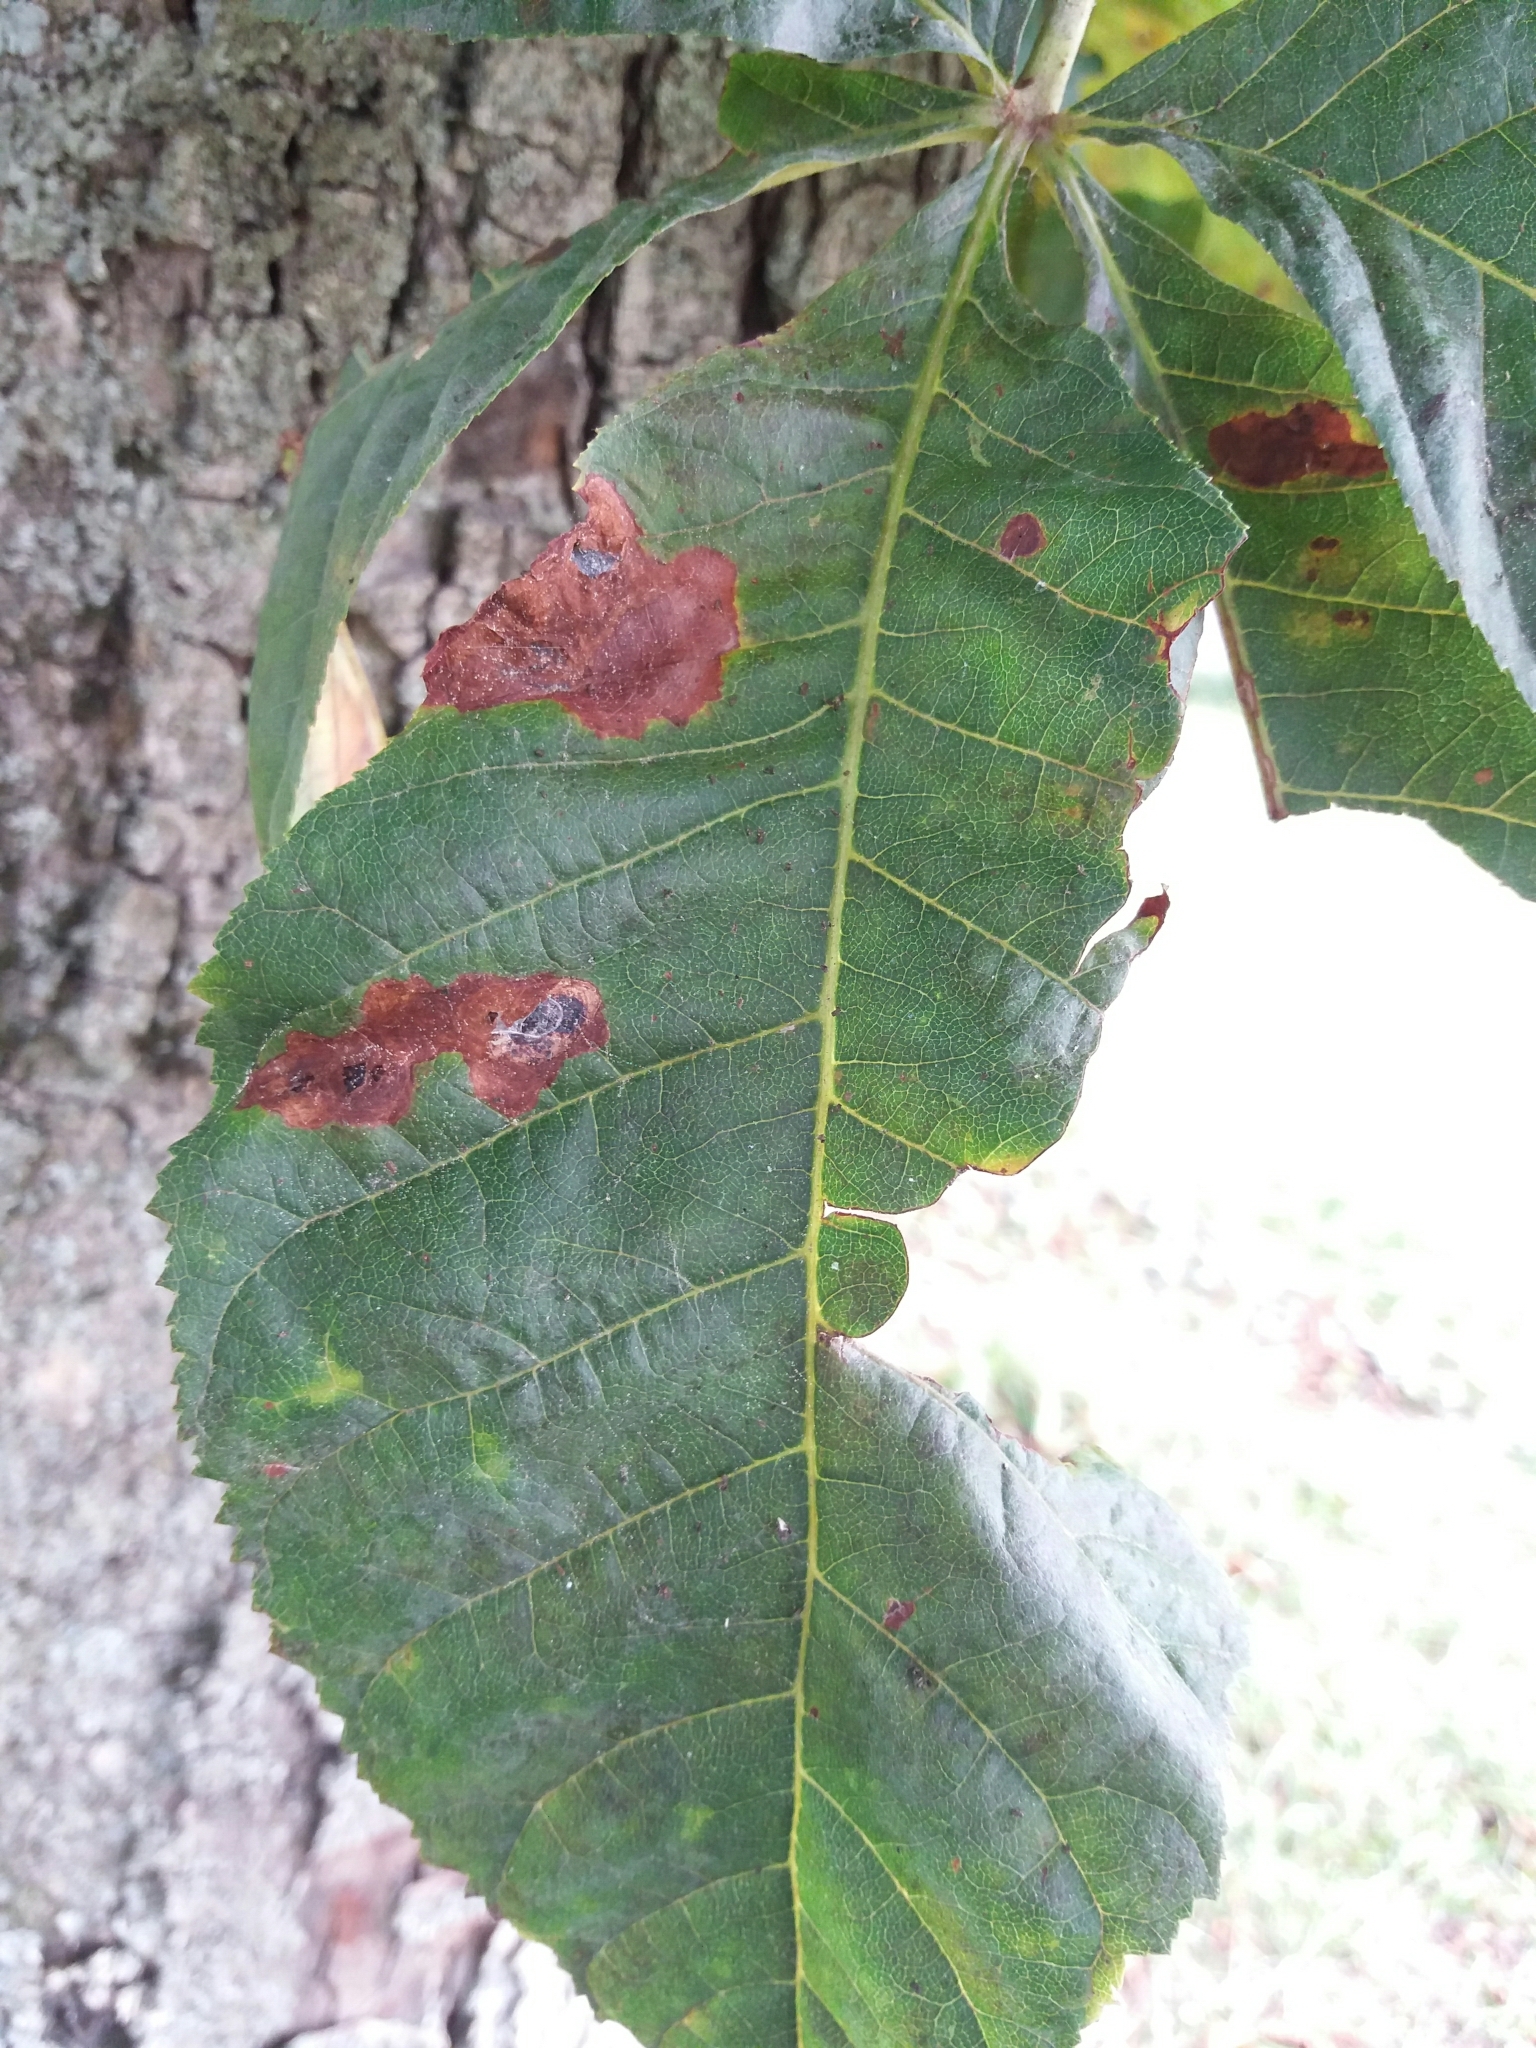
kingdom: Animalia
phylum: Arthropoda
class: Insecta
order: Lepidoptera
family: Gracillariidae
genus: Cameraria
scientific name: Cameraria ohridella
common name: Horse-chestnut leaf-miner
